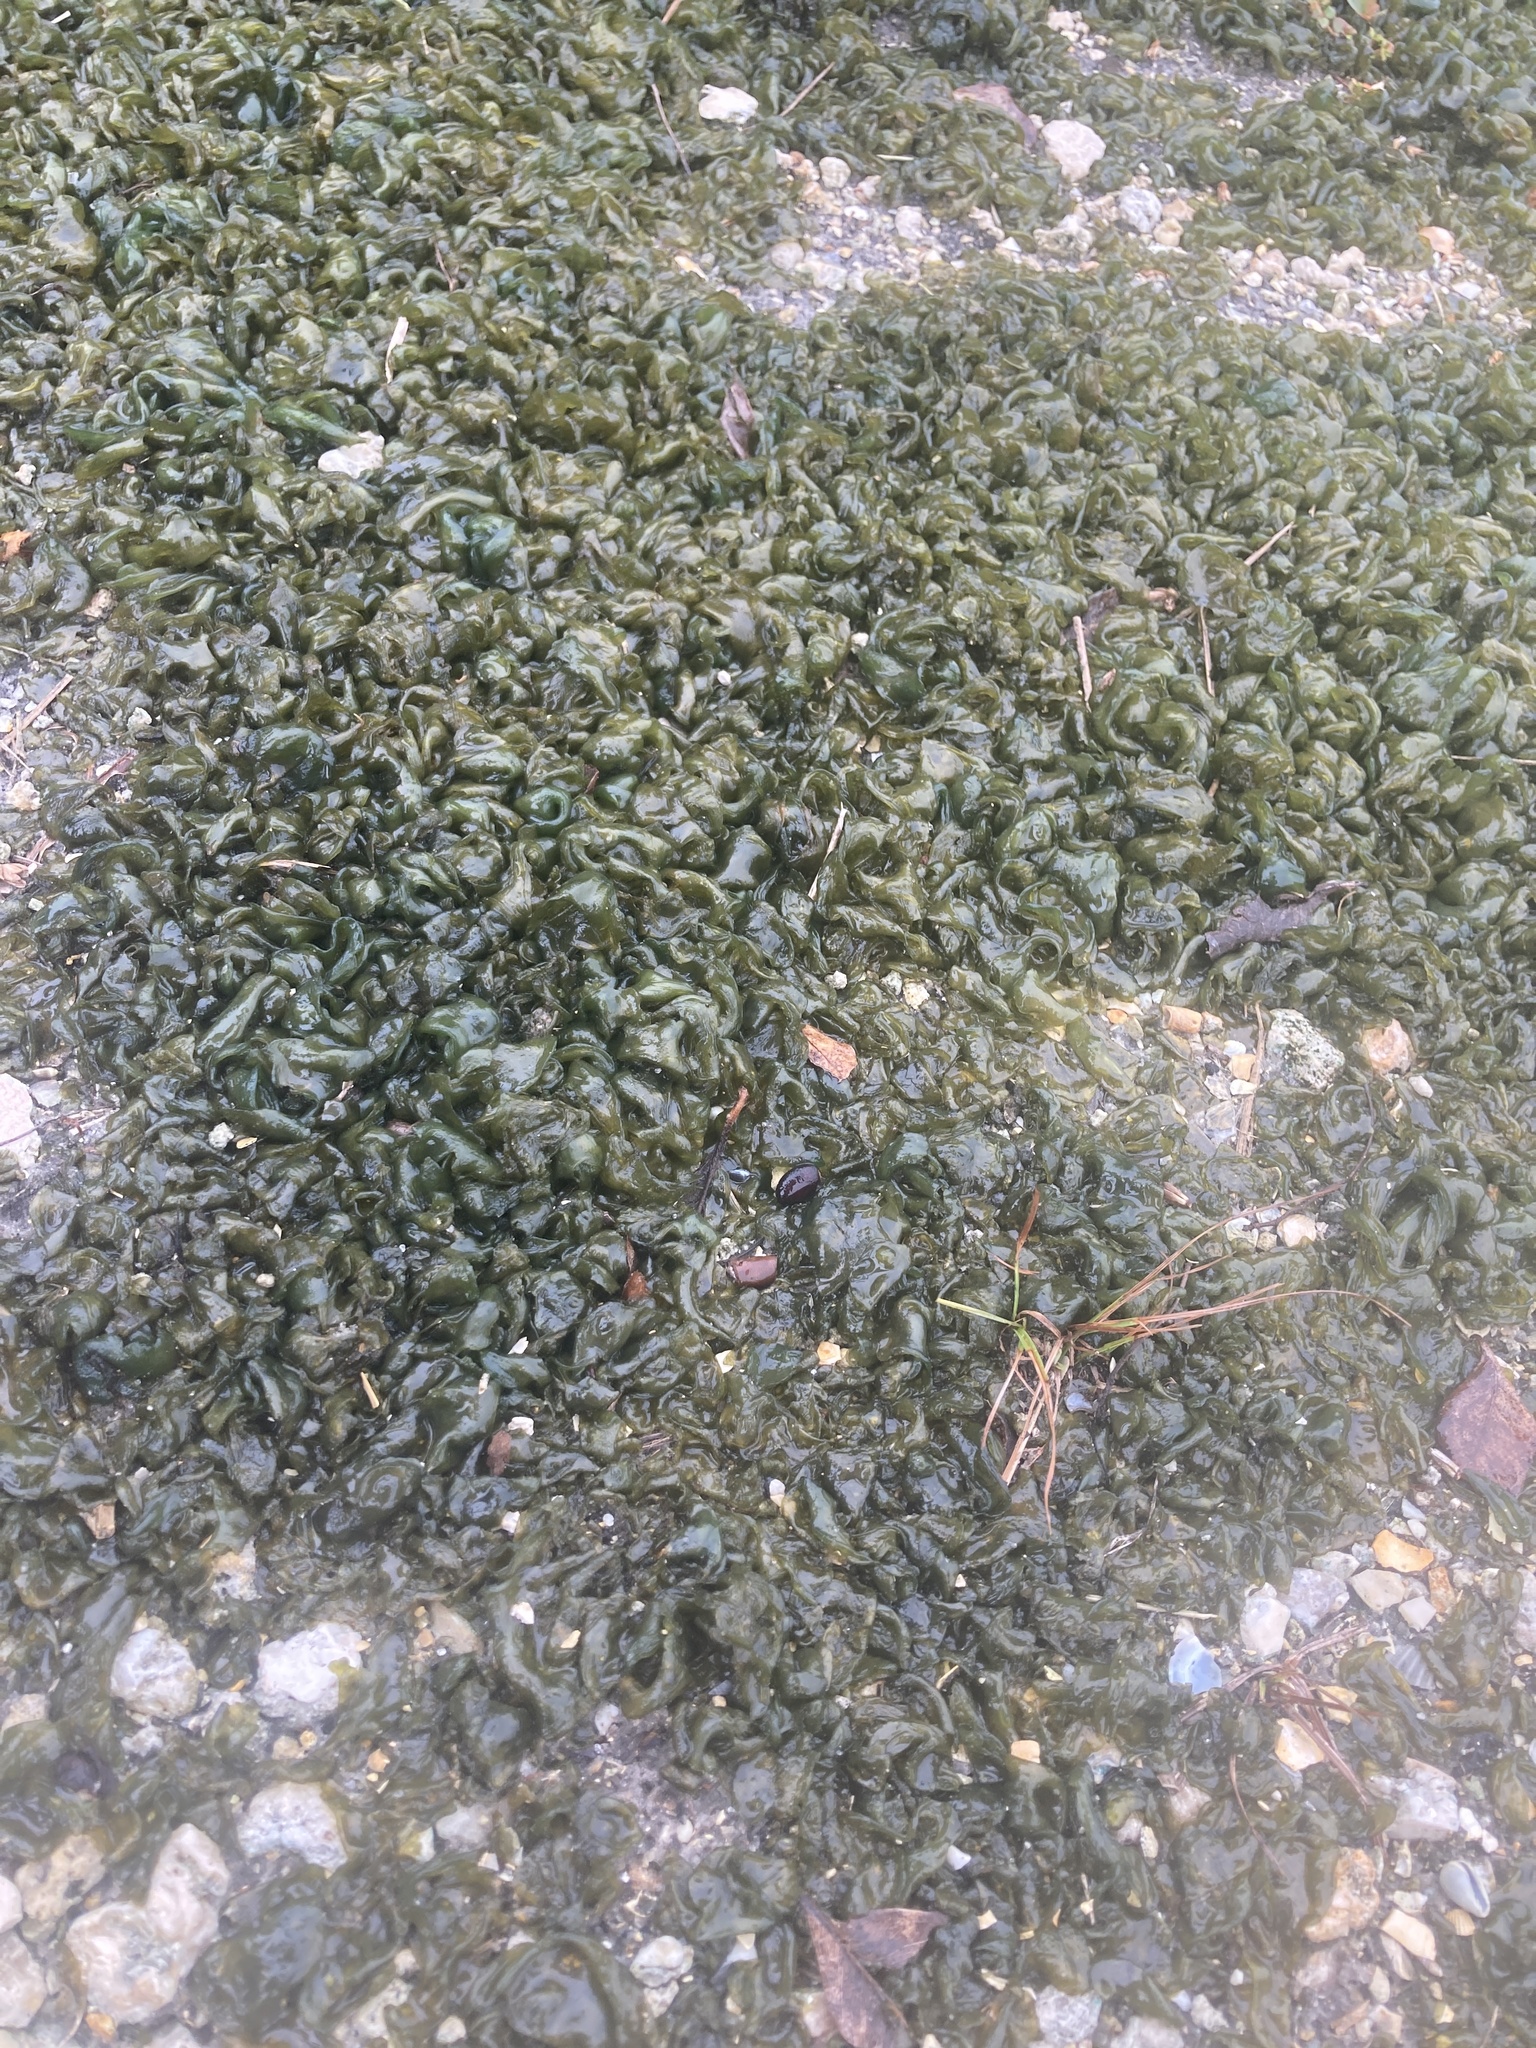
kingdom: Bacteria
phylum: Cyanobacteria
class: Cyanobacteriia
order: Cyanobacteriales
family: Nostocaceae
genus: Nostoc
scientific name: Nostoc commune
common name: Star jelly
